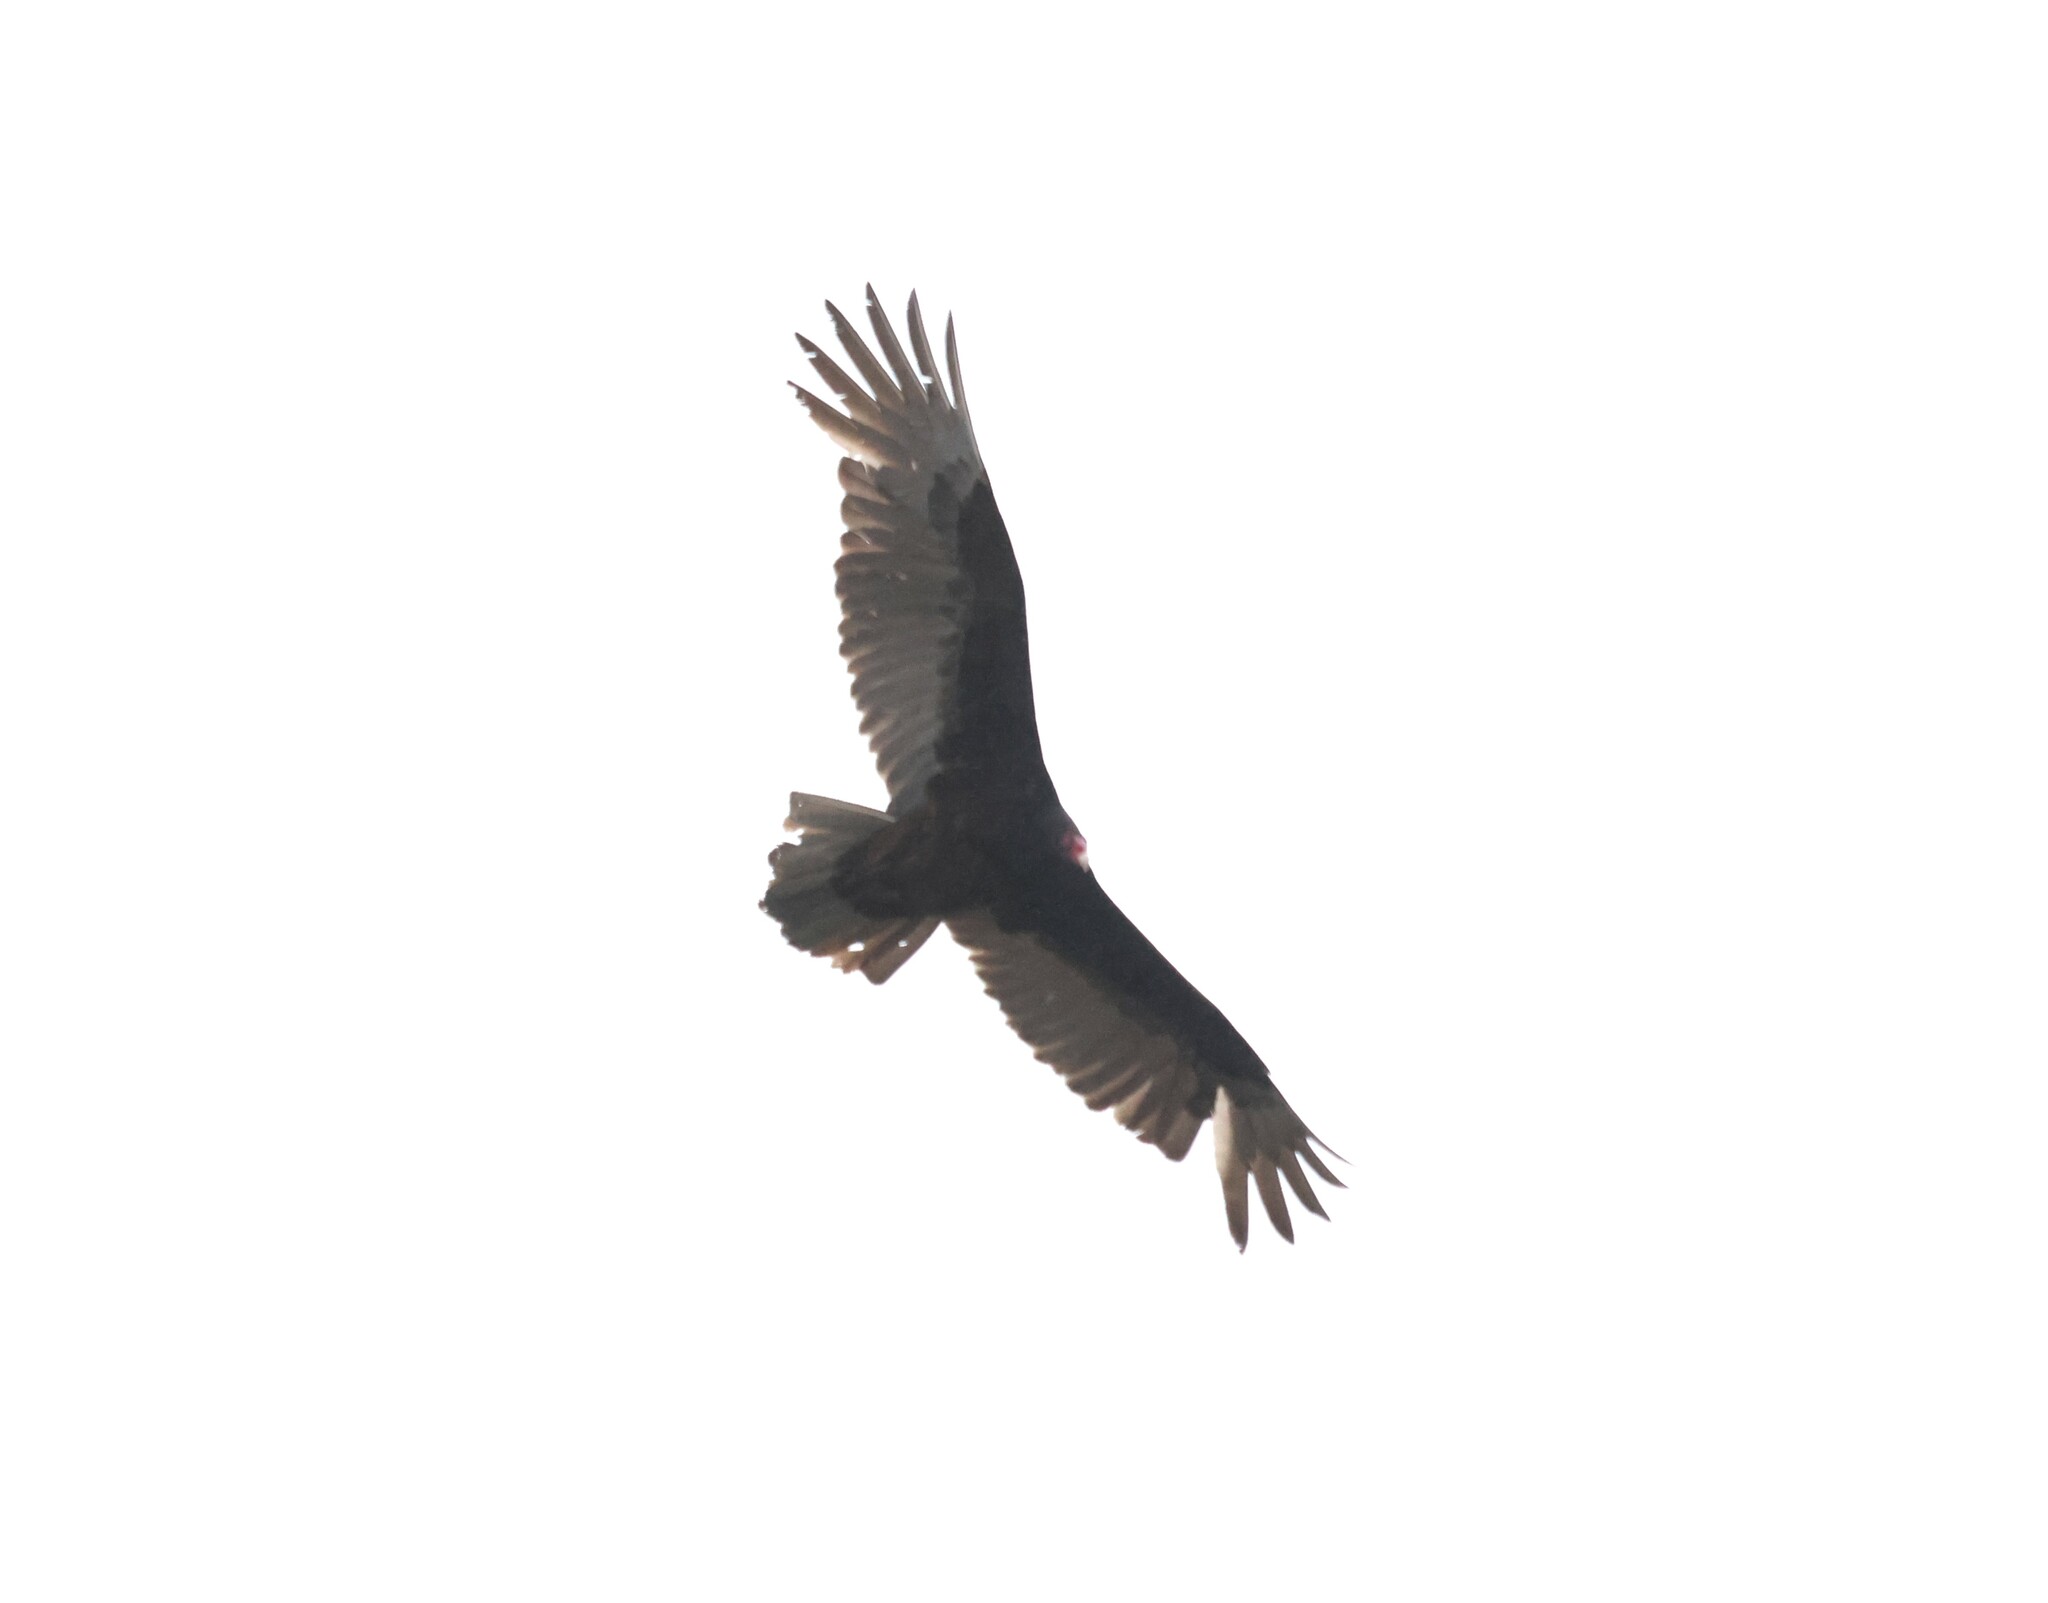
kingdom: Animalia
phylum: Chordata
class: Aves
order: Accipitriformes
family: Cathartidae
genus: Cathartes
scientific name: Cathartes aura
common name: Turkey vulture
